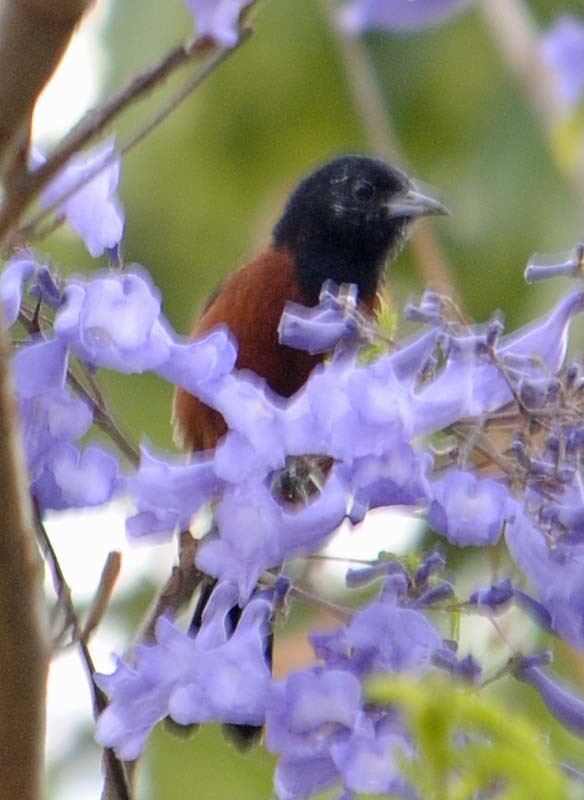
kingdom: Animalia
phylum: Chordata
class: Aves
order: Passeriformes
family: Icteridae
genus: Icterus
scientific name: Icterus spurius
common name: Orchard oriole
